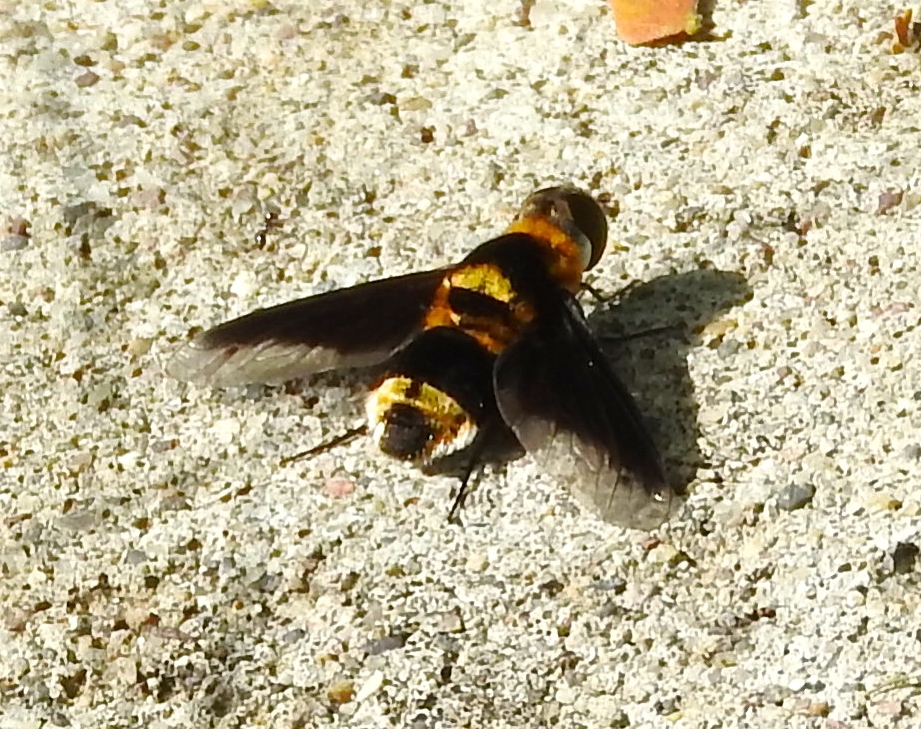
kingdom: Animalia
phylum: Arthropoda
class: Insecta
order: Diptera
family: Bombyliidae
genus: Hemipenthes
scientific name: Hemipenthes
